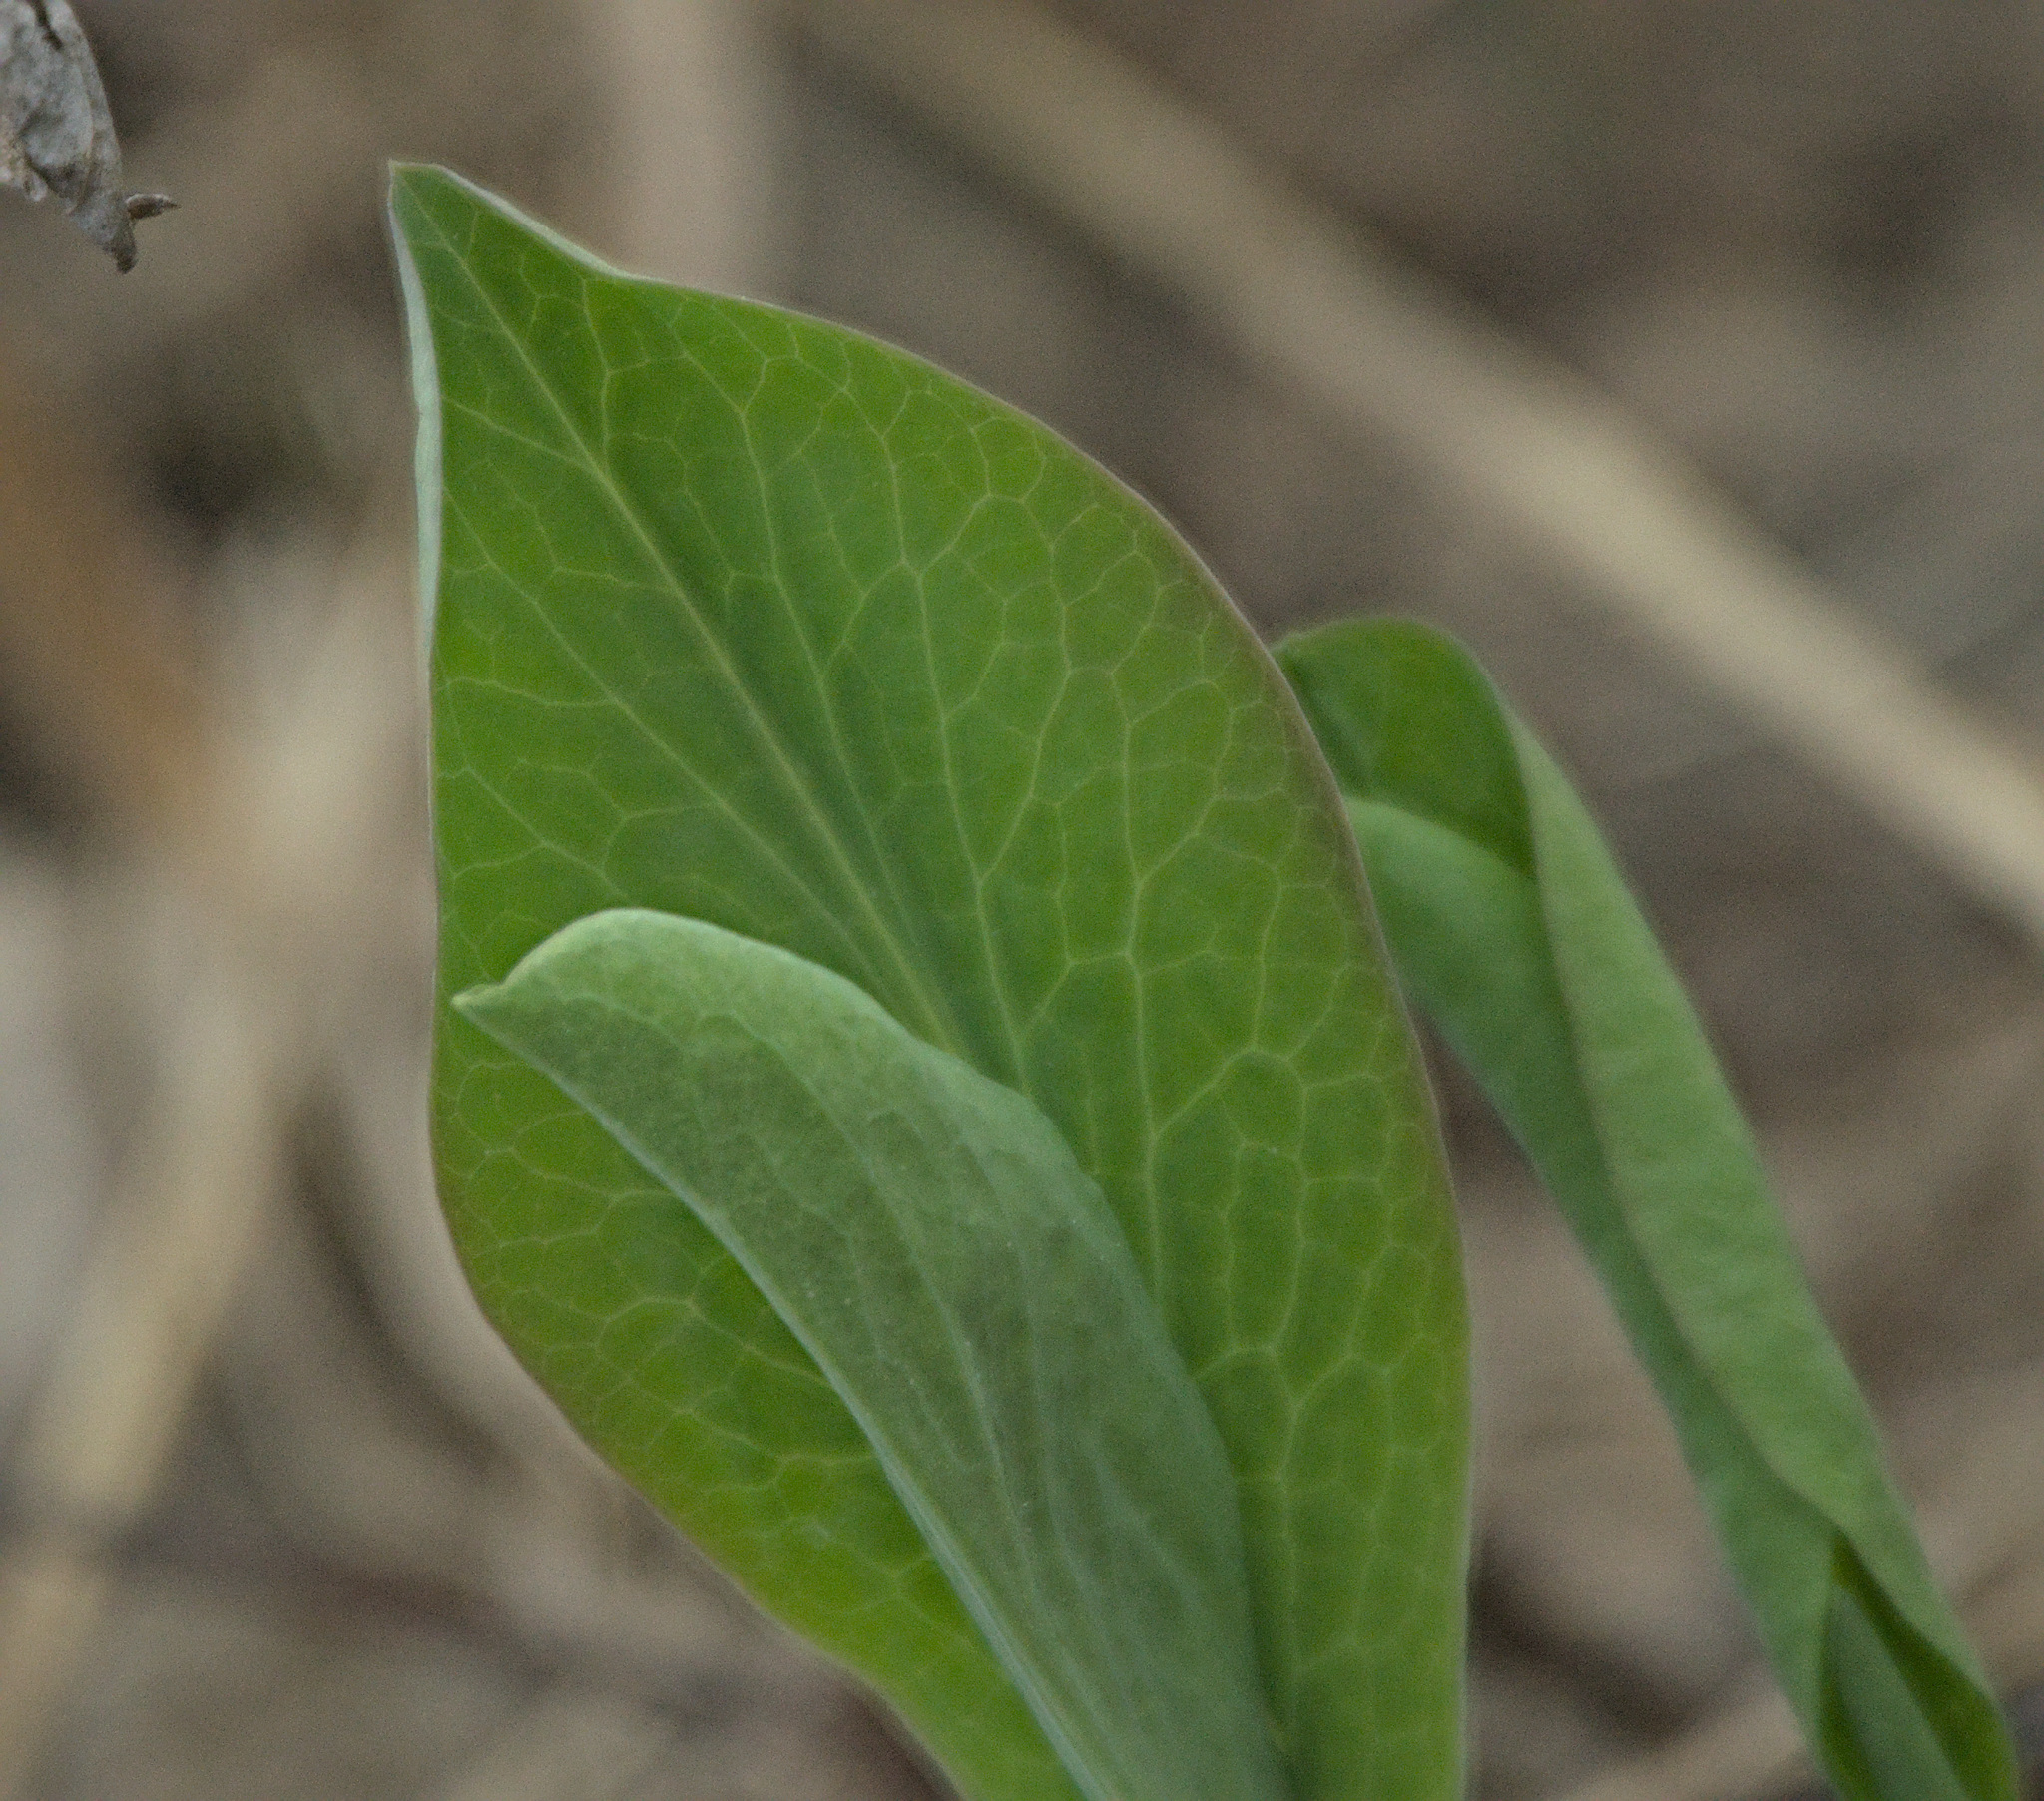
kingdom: Plantae
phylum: Tracheophyta
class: Magnoliopsida
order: Apiales
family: Apiaceae
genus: Bupleurum
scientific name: Bupleurum aureum
